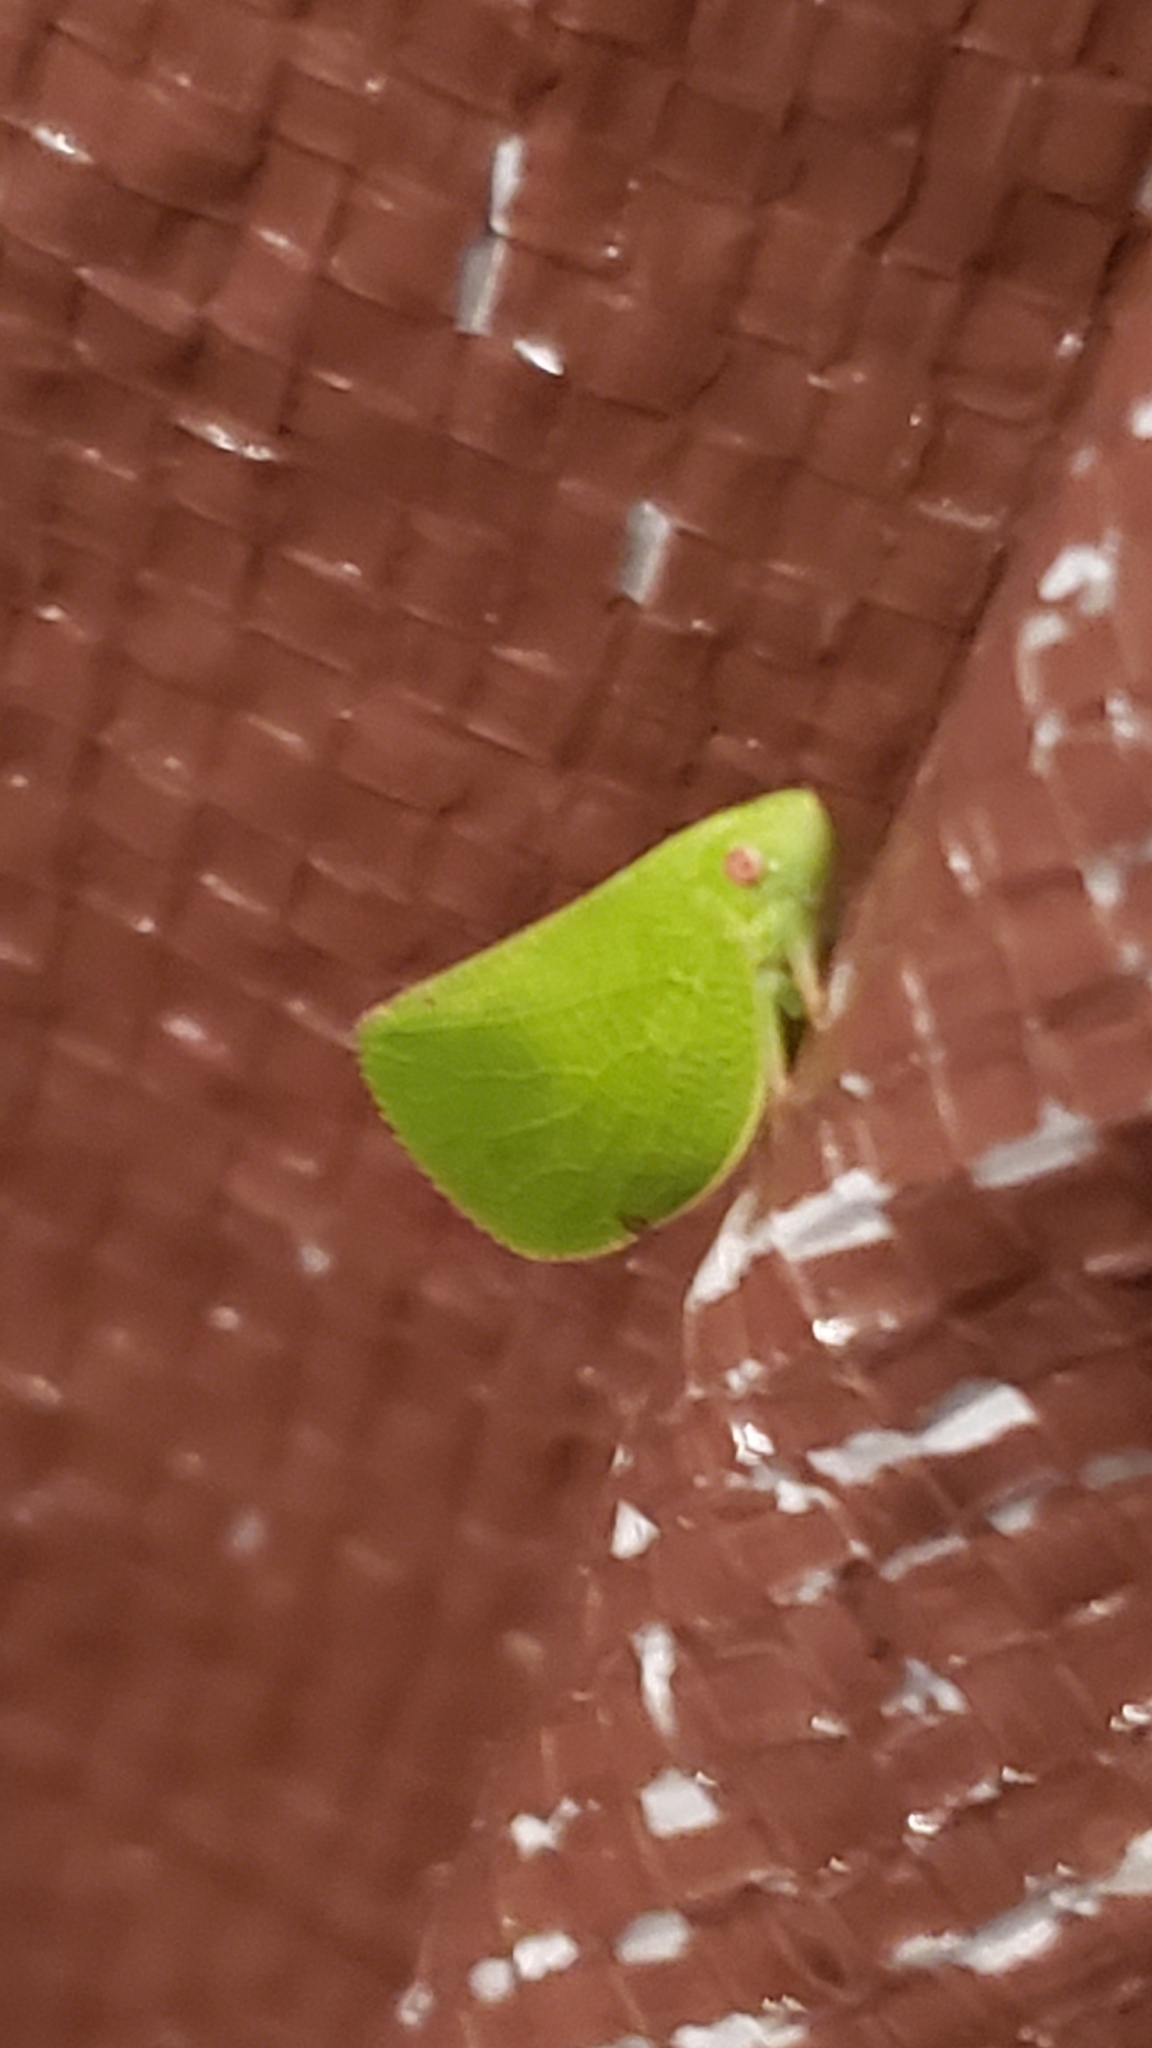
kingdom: Animalia
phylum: Arthropoda
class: Insecta
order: Hemiptera
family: Acanaloniidae
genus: Acanalonia
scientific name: Acanalonia conica
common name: Green cone-headed planthopper
